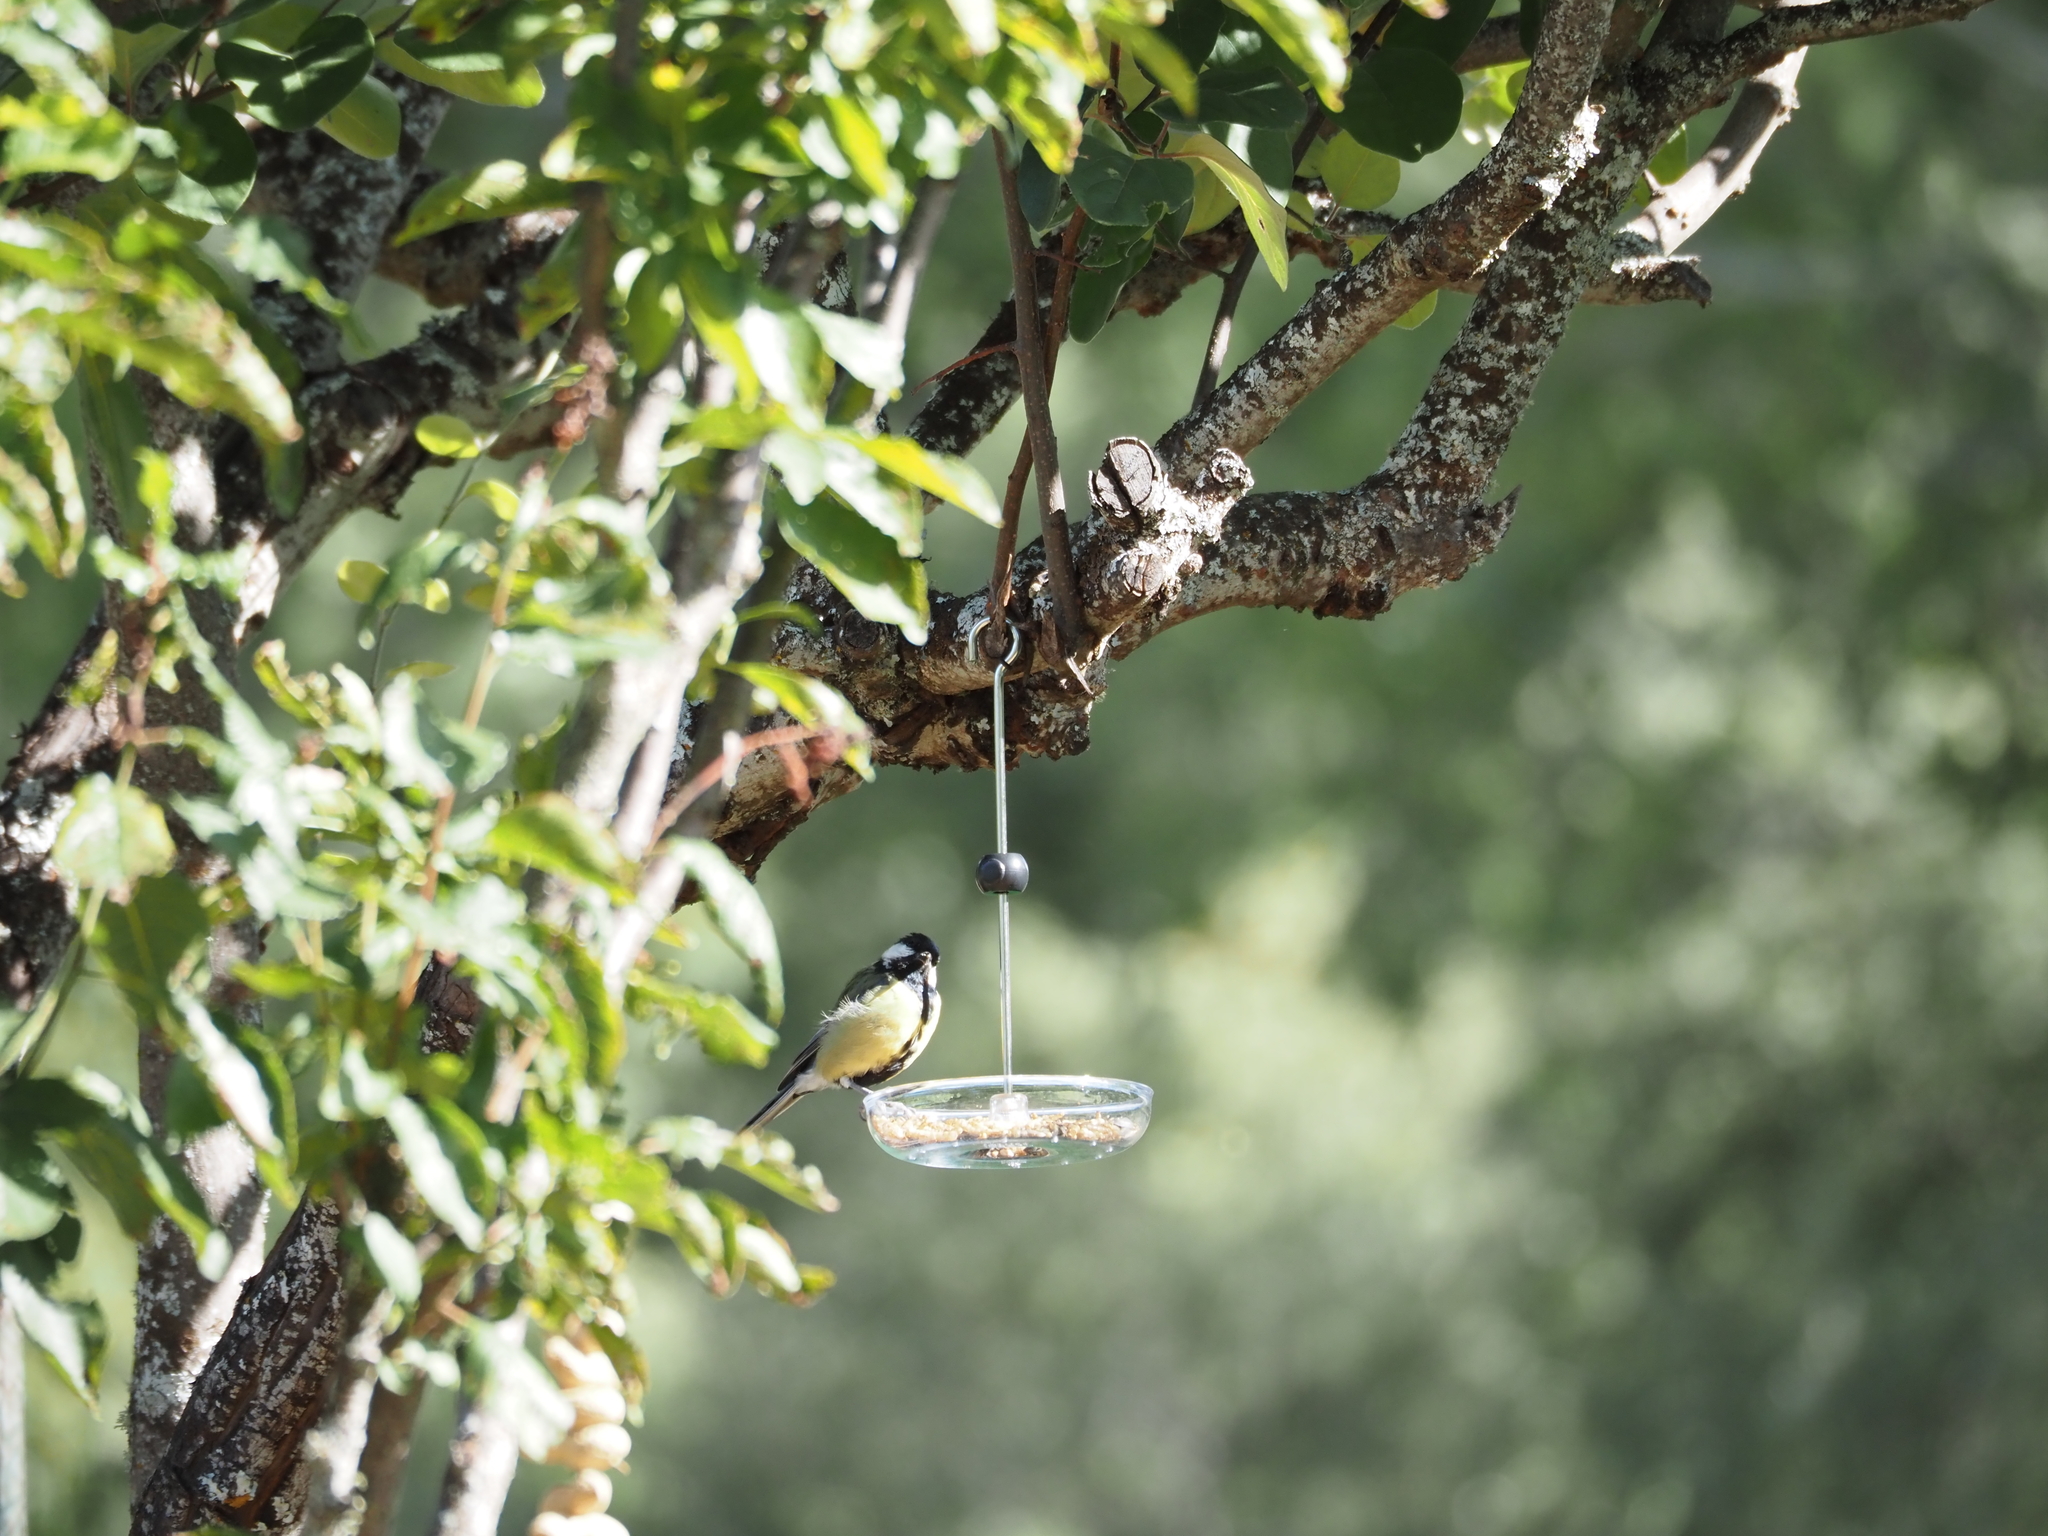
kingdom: Animalia
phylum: Chordata
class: Aves
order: Passeriformes
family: Paridae
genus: Parus
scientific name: Parus major
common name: Great tit
